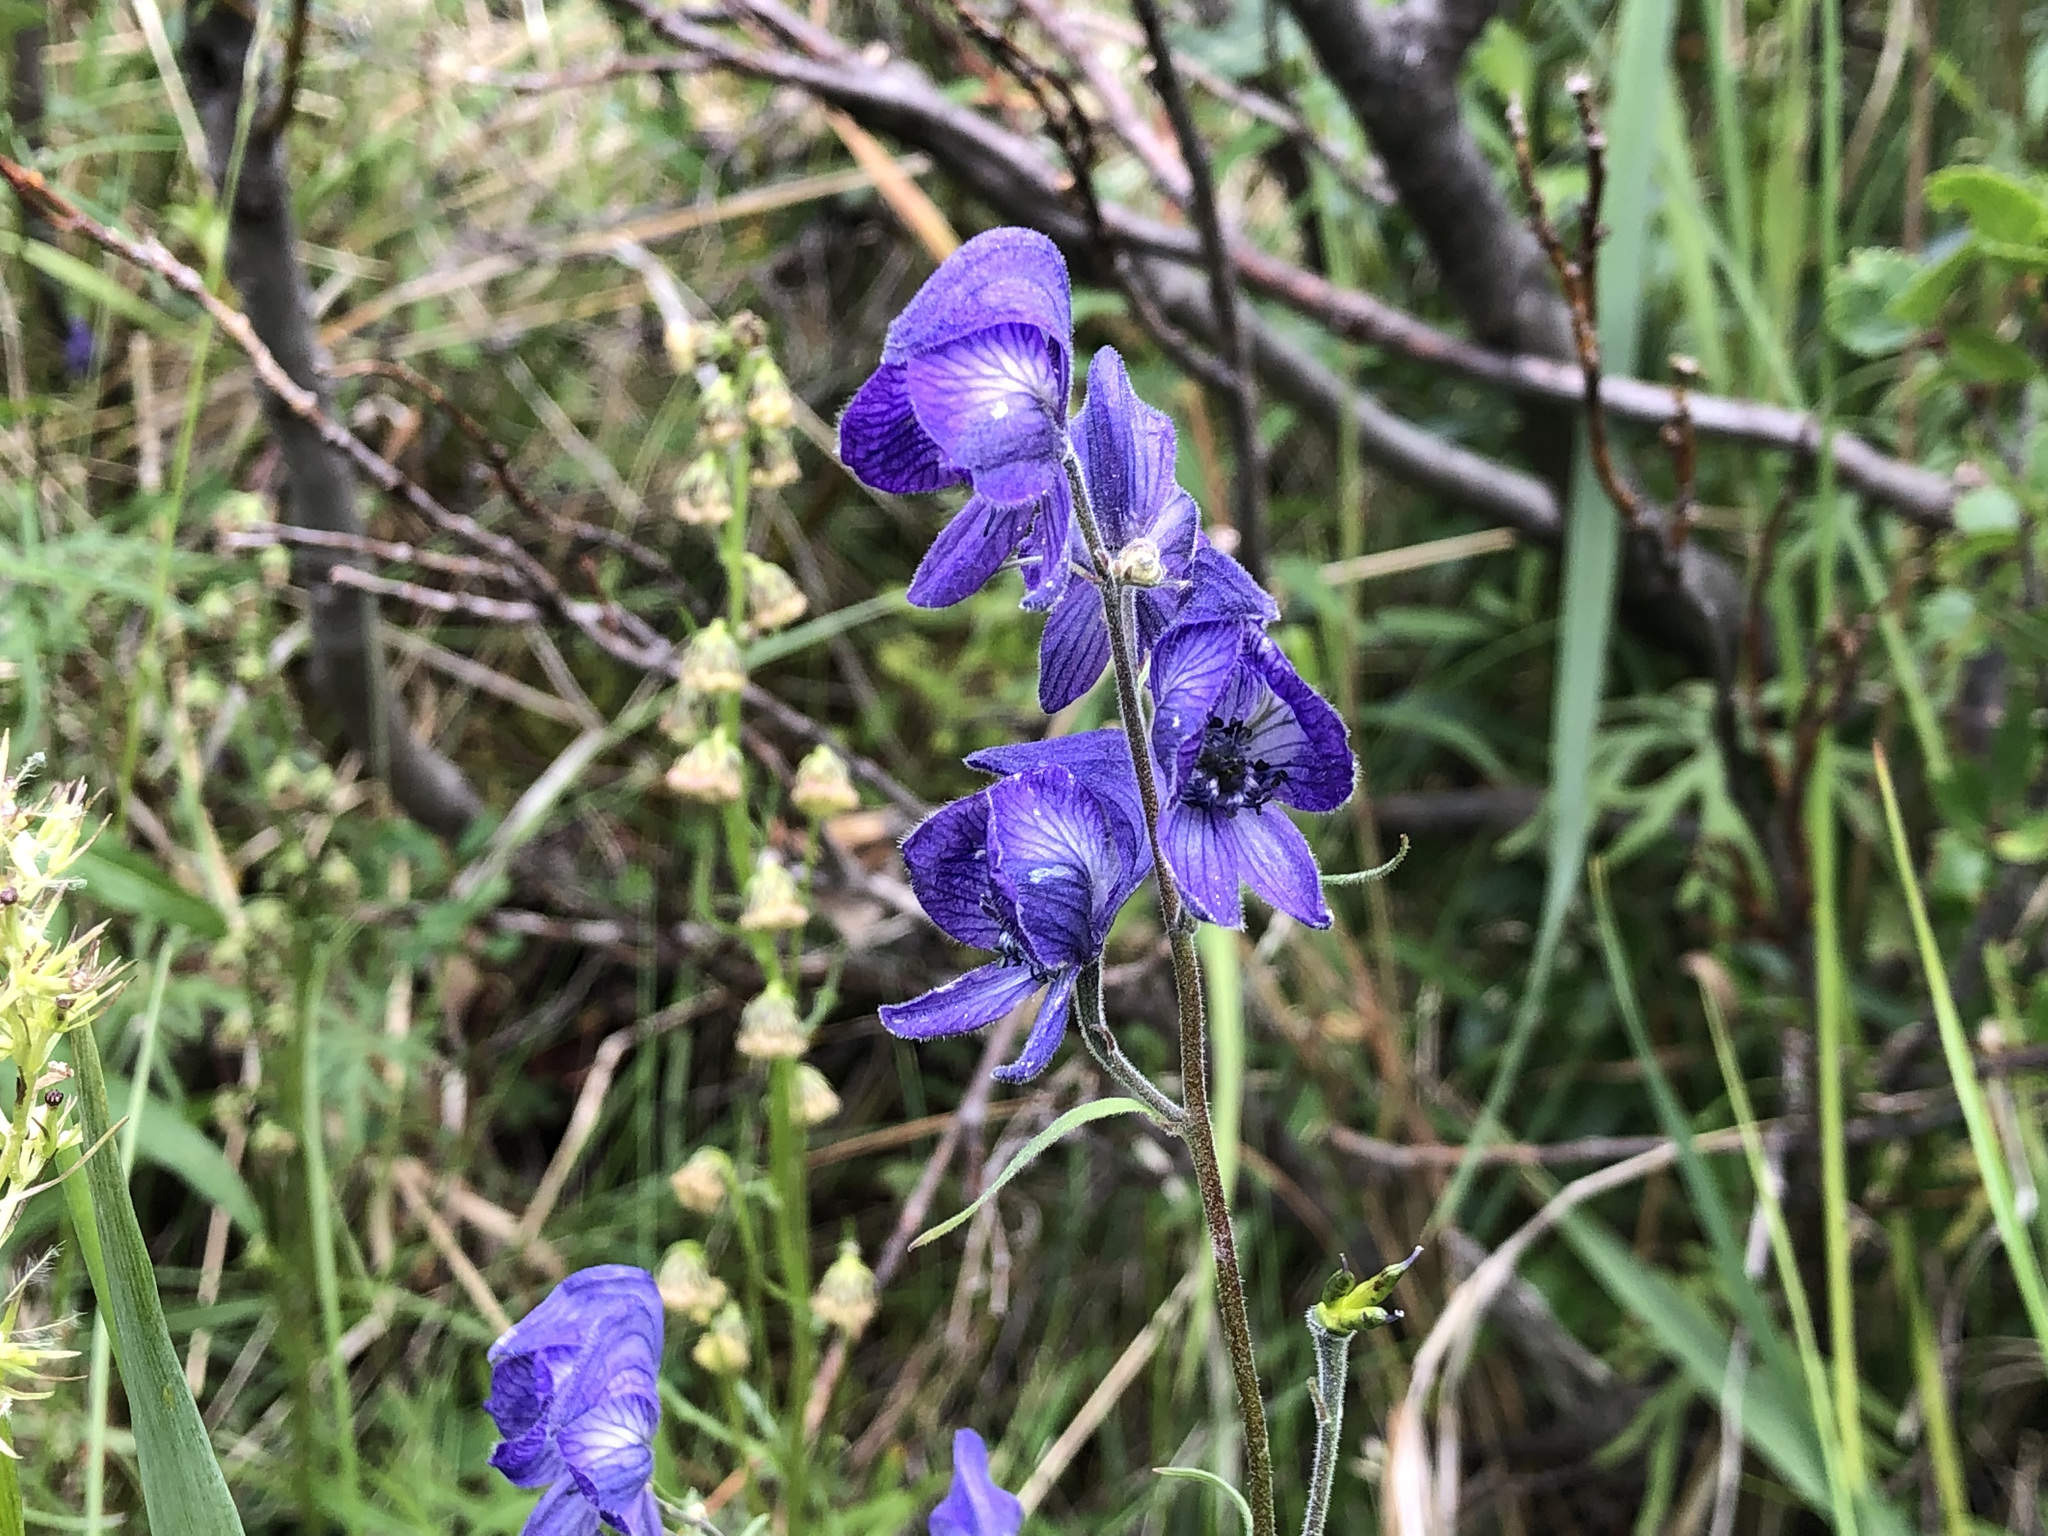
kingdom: Plantae
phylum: Tracheophyta
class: Magnoliopsida
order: Ranunculales
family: Ranunculaceae
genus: Aconitum
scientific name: Aconitum delphiniifolium
